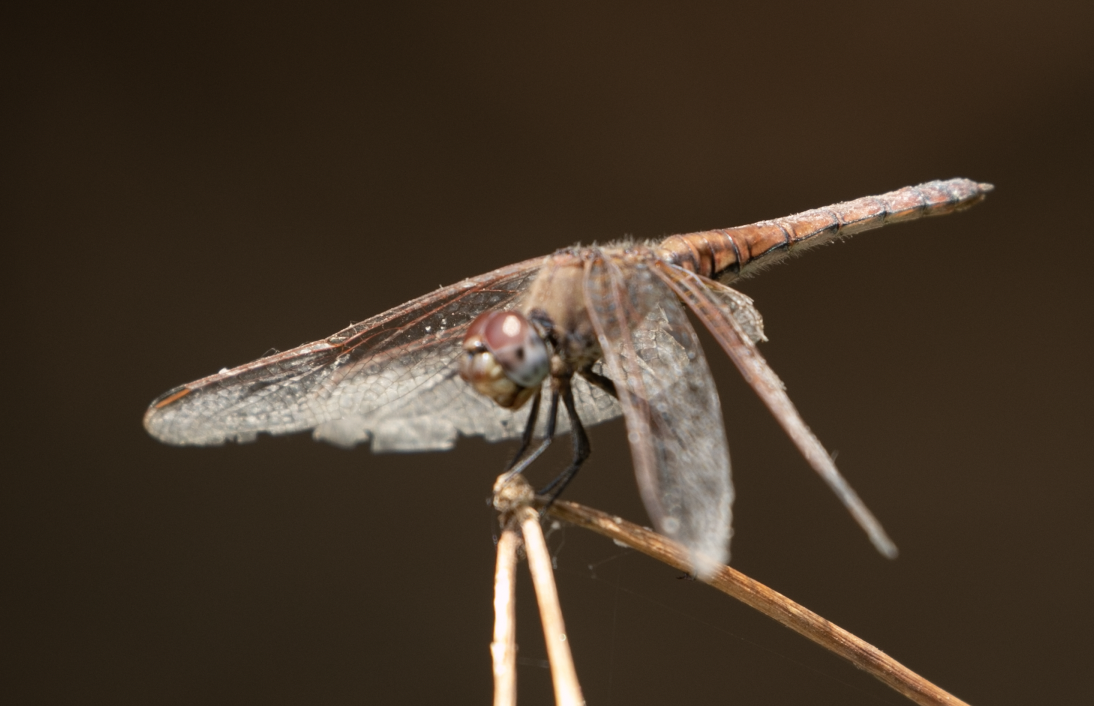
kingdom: Animalia
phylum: Arthropoda
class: Insecta
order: Odonata
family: Libellulidae
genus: Trithemis
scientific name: Trithemis annulata
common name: Violet dropwing
